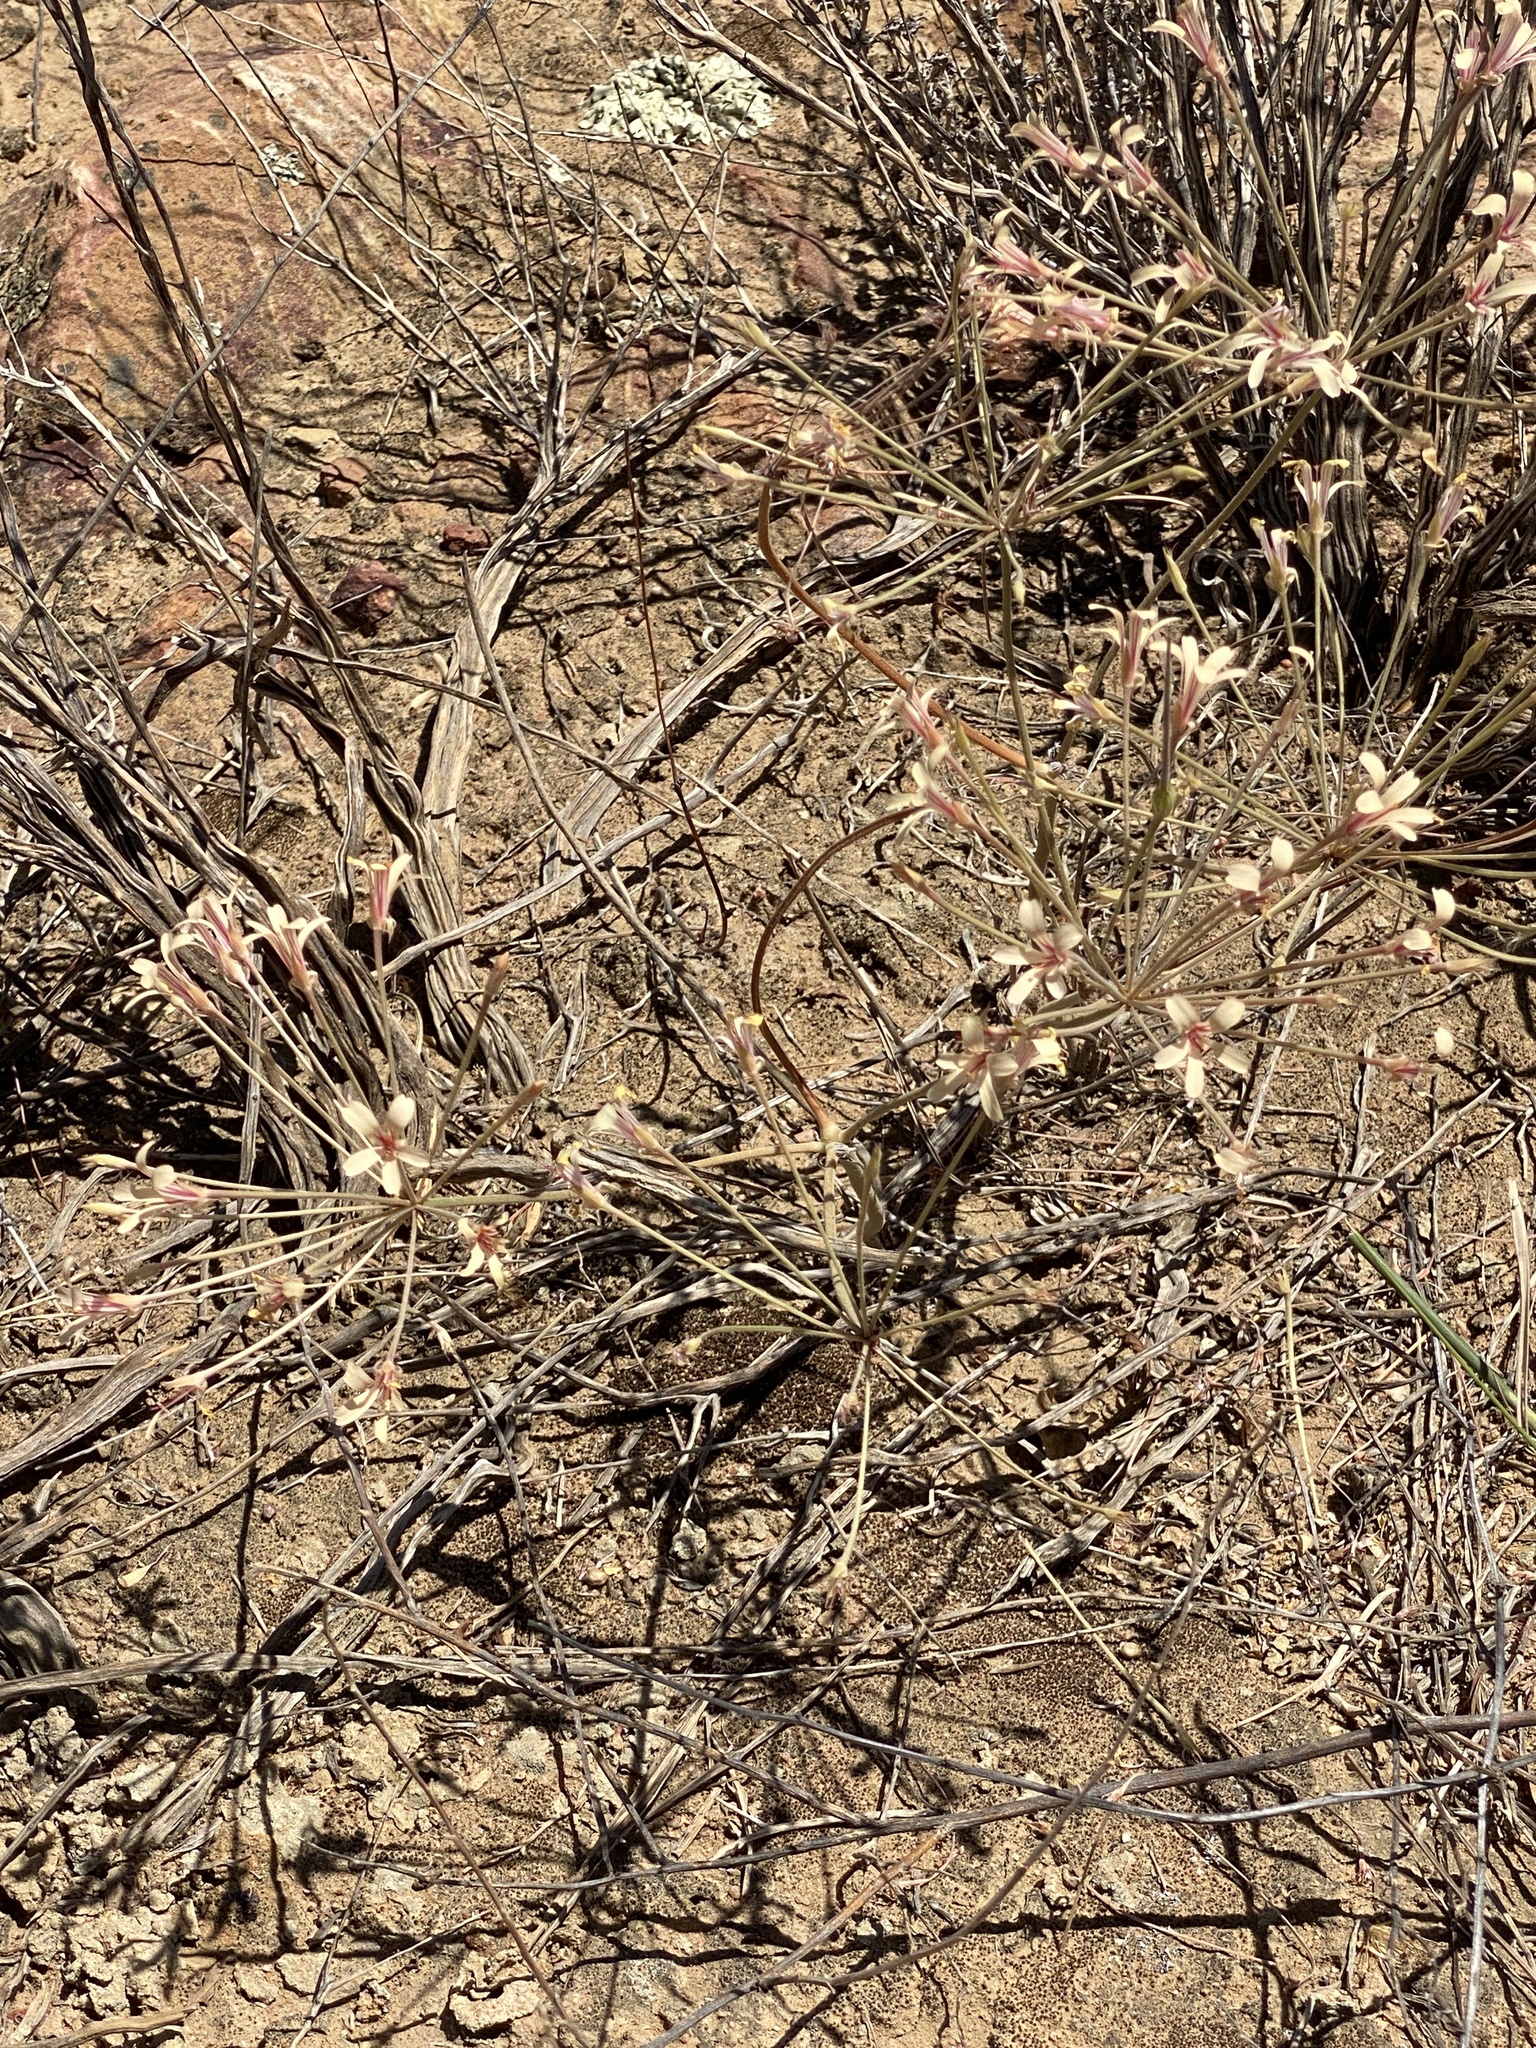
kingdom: Plantae
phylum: Tracheophyta
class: Magnoliopsida
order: Geraniales
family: Geraniaceae
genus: Pelargonium
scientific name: Pelargonium fasciculaceum
